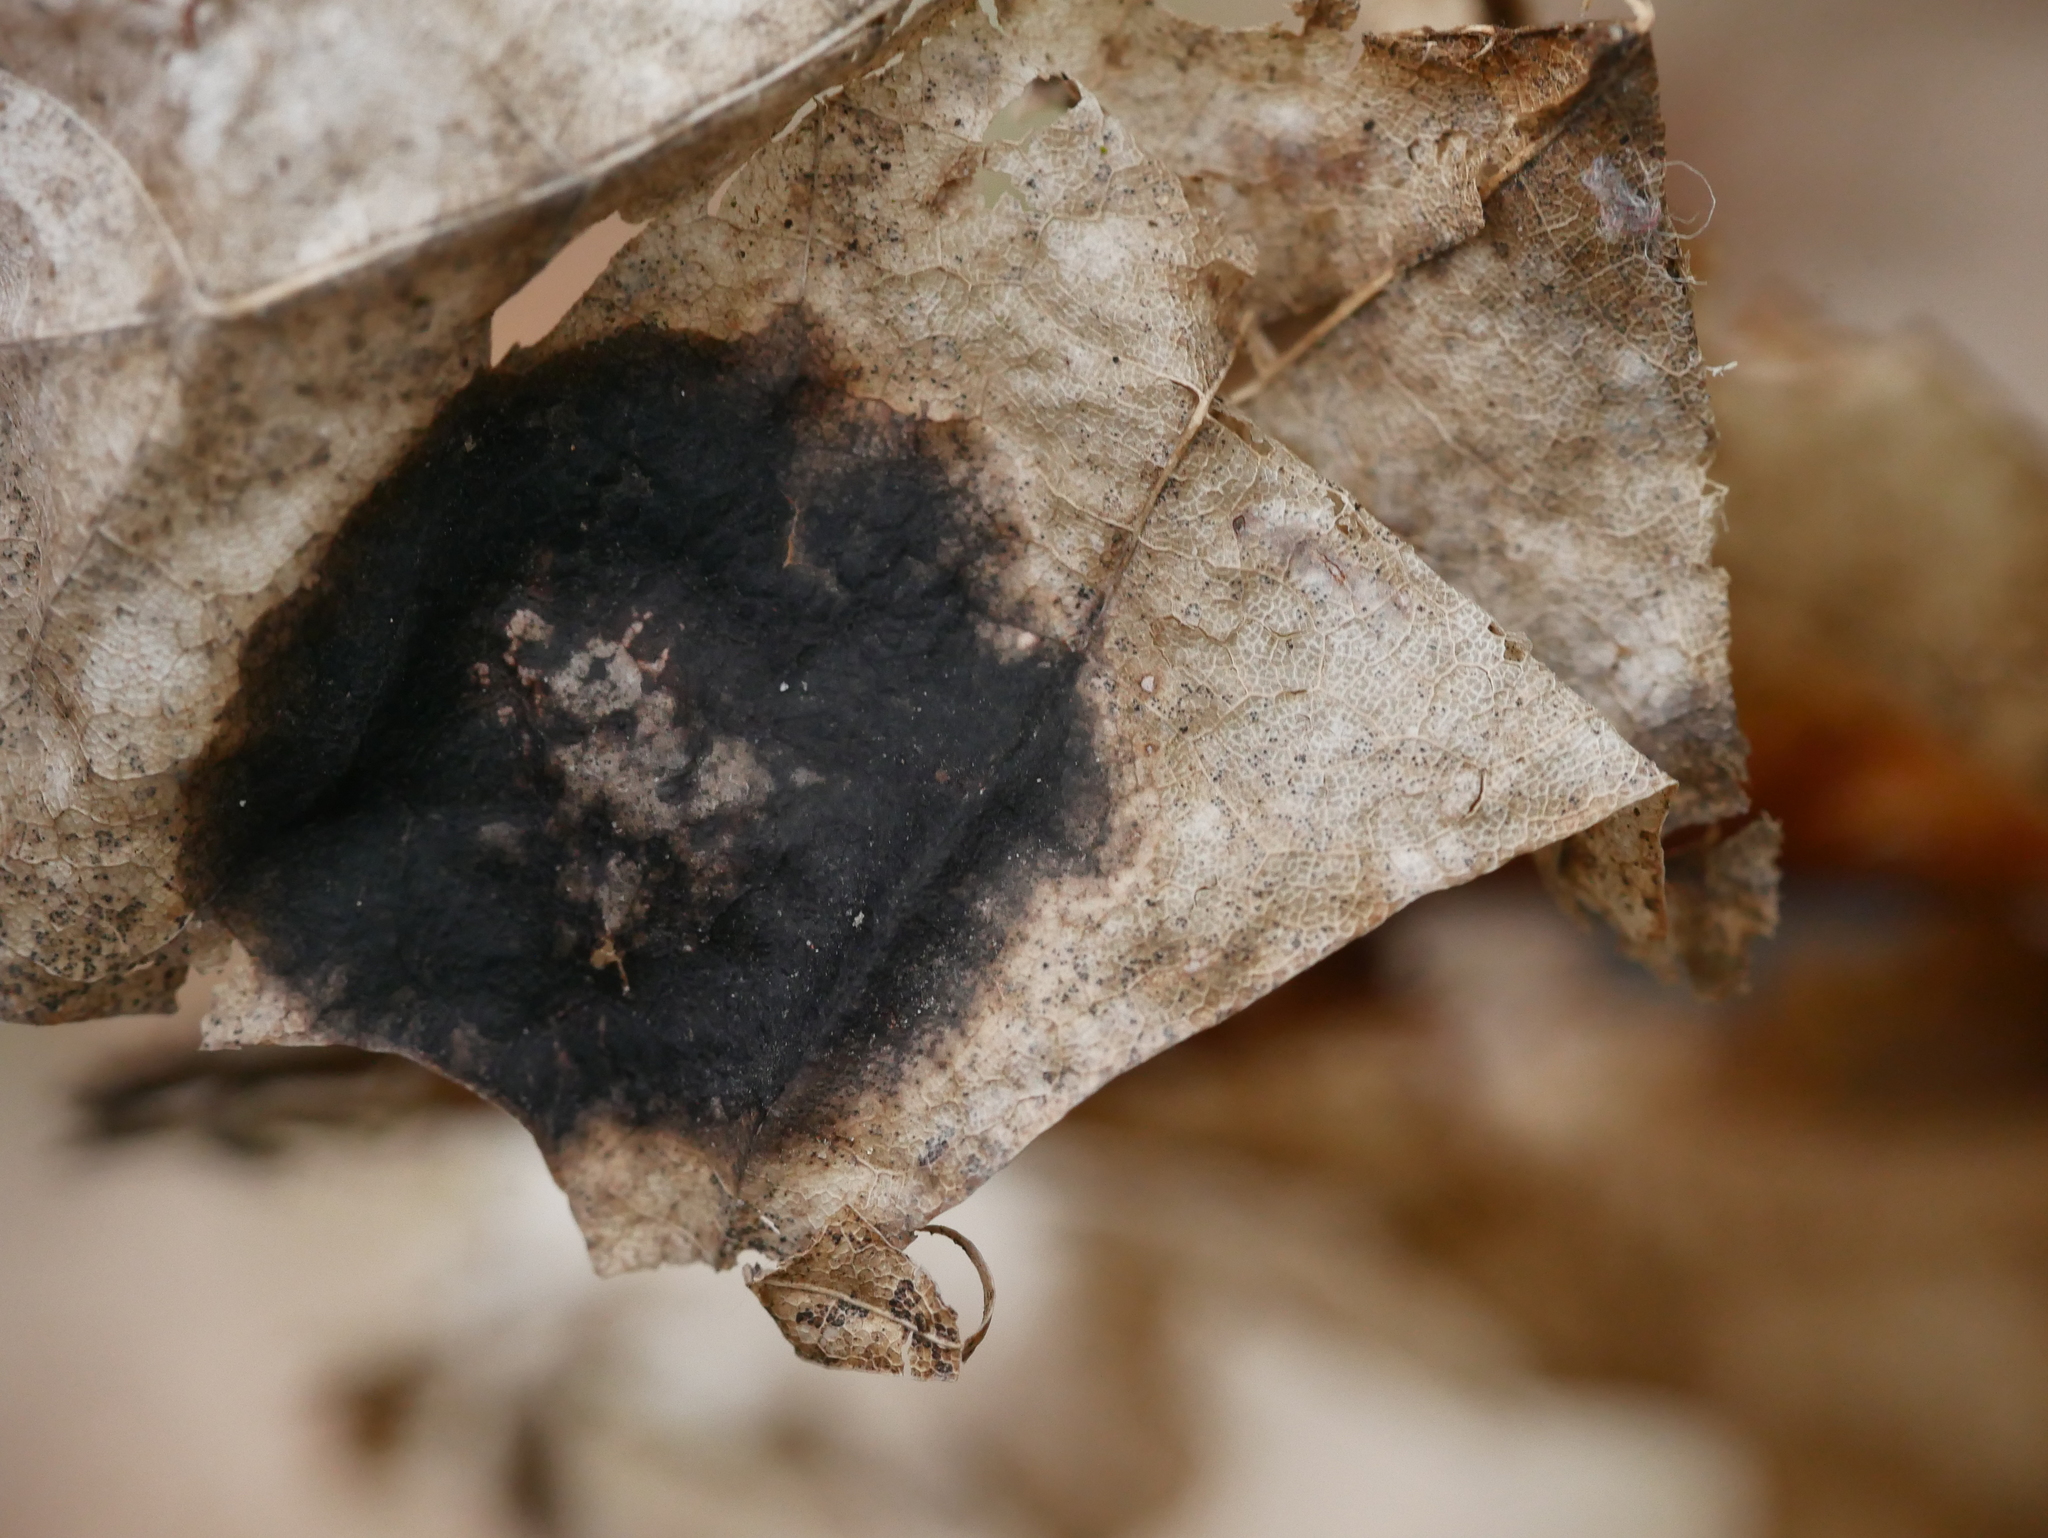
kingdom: Fungi
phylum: Ascomycota
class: Leotiomycetes
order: Rhytismatales
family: Rhytismataceae
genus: Rhytisma
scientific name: Rhytisma acerinum
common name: European tar spot
